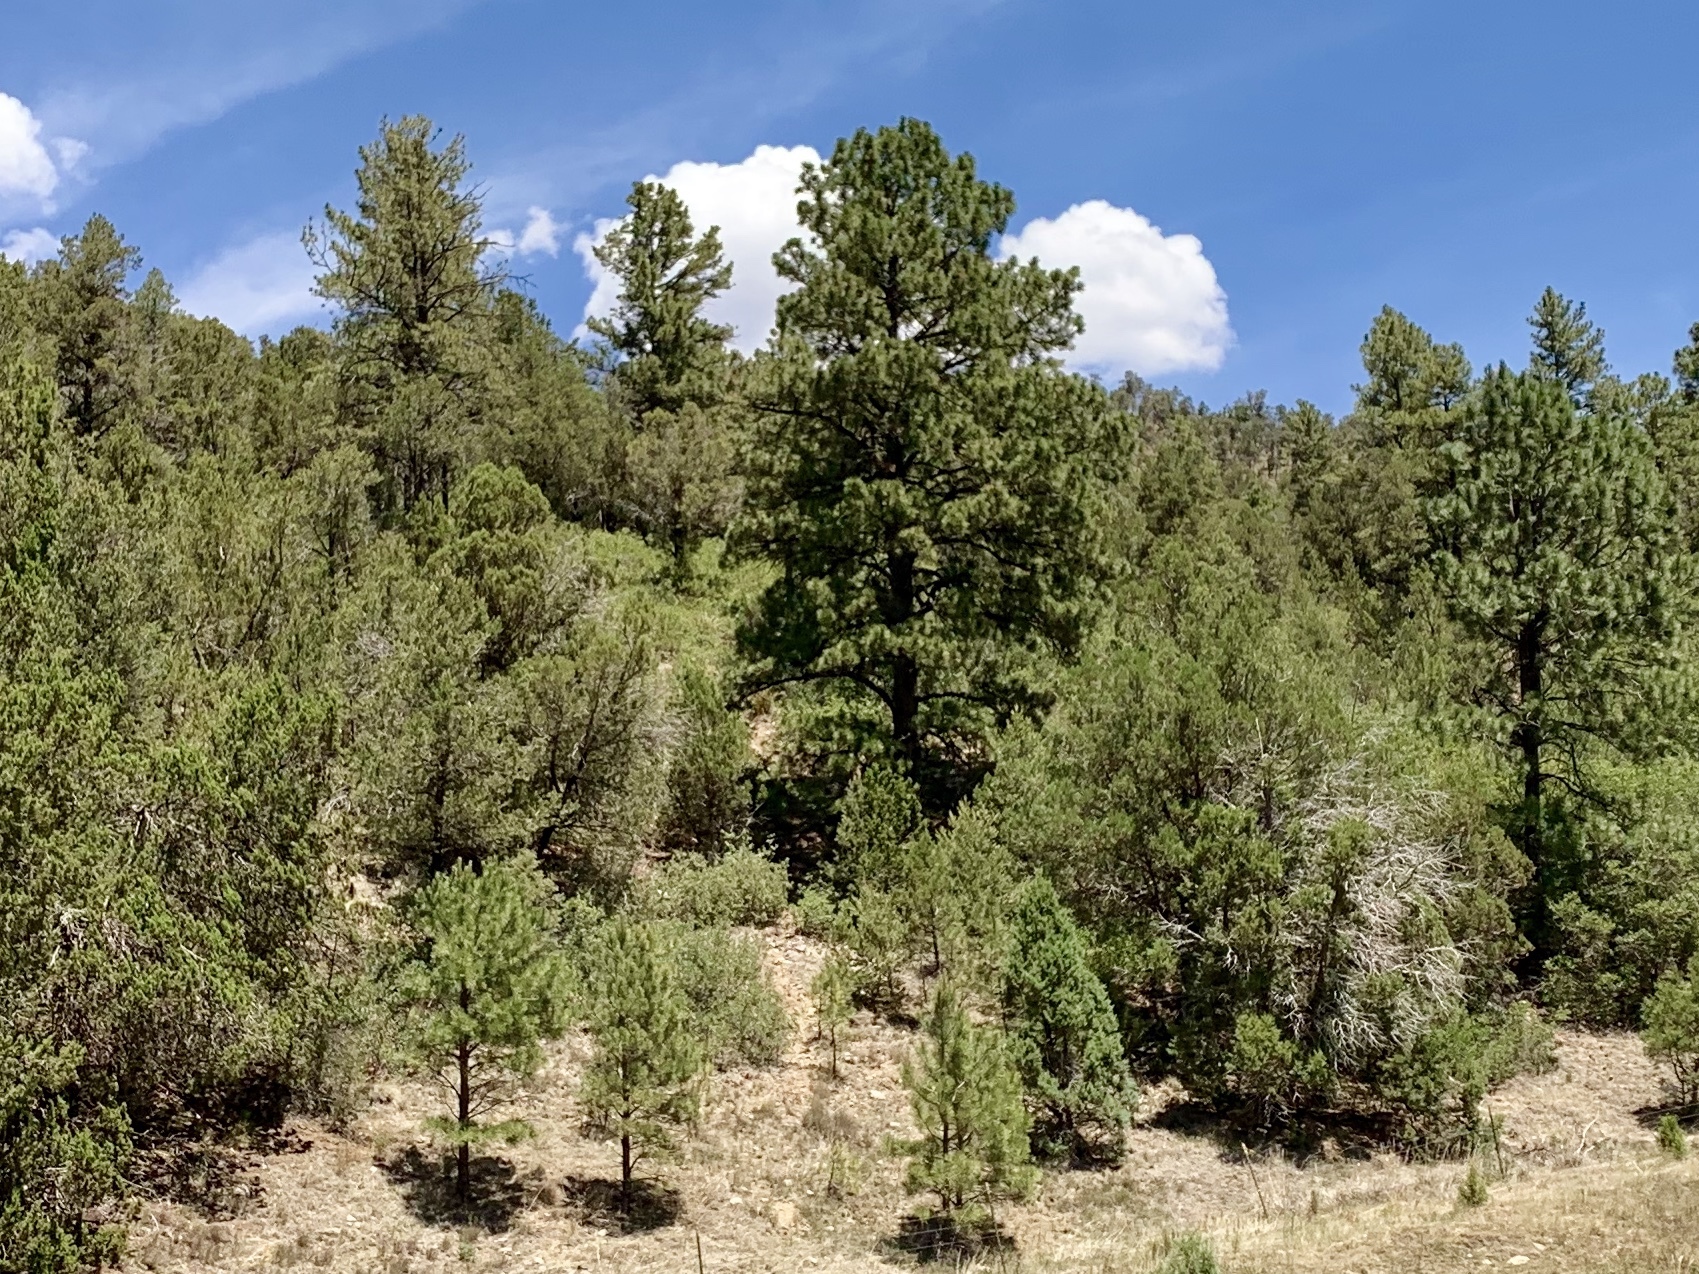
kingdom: Plantae
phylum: Tracheophyta
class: Pinopsida
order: Pinales
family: Pinaceae
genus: Pinus
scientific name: Pinus ponderosa
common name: Western yellow-pine
